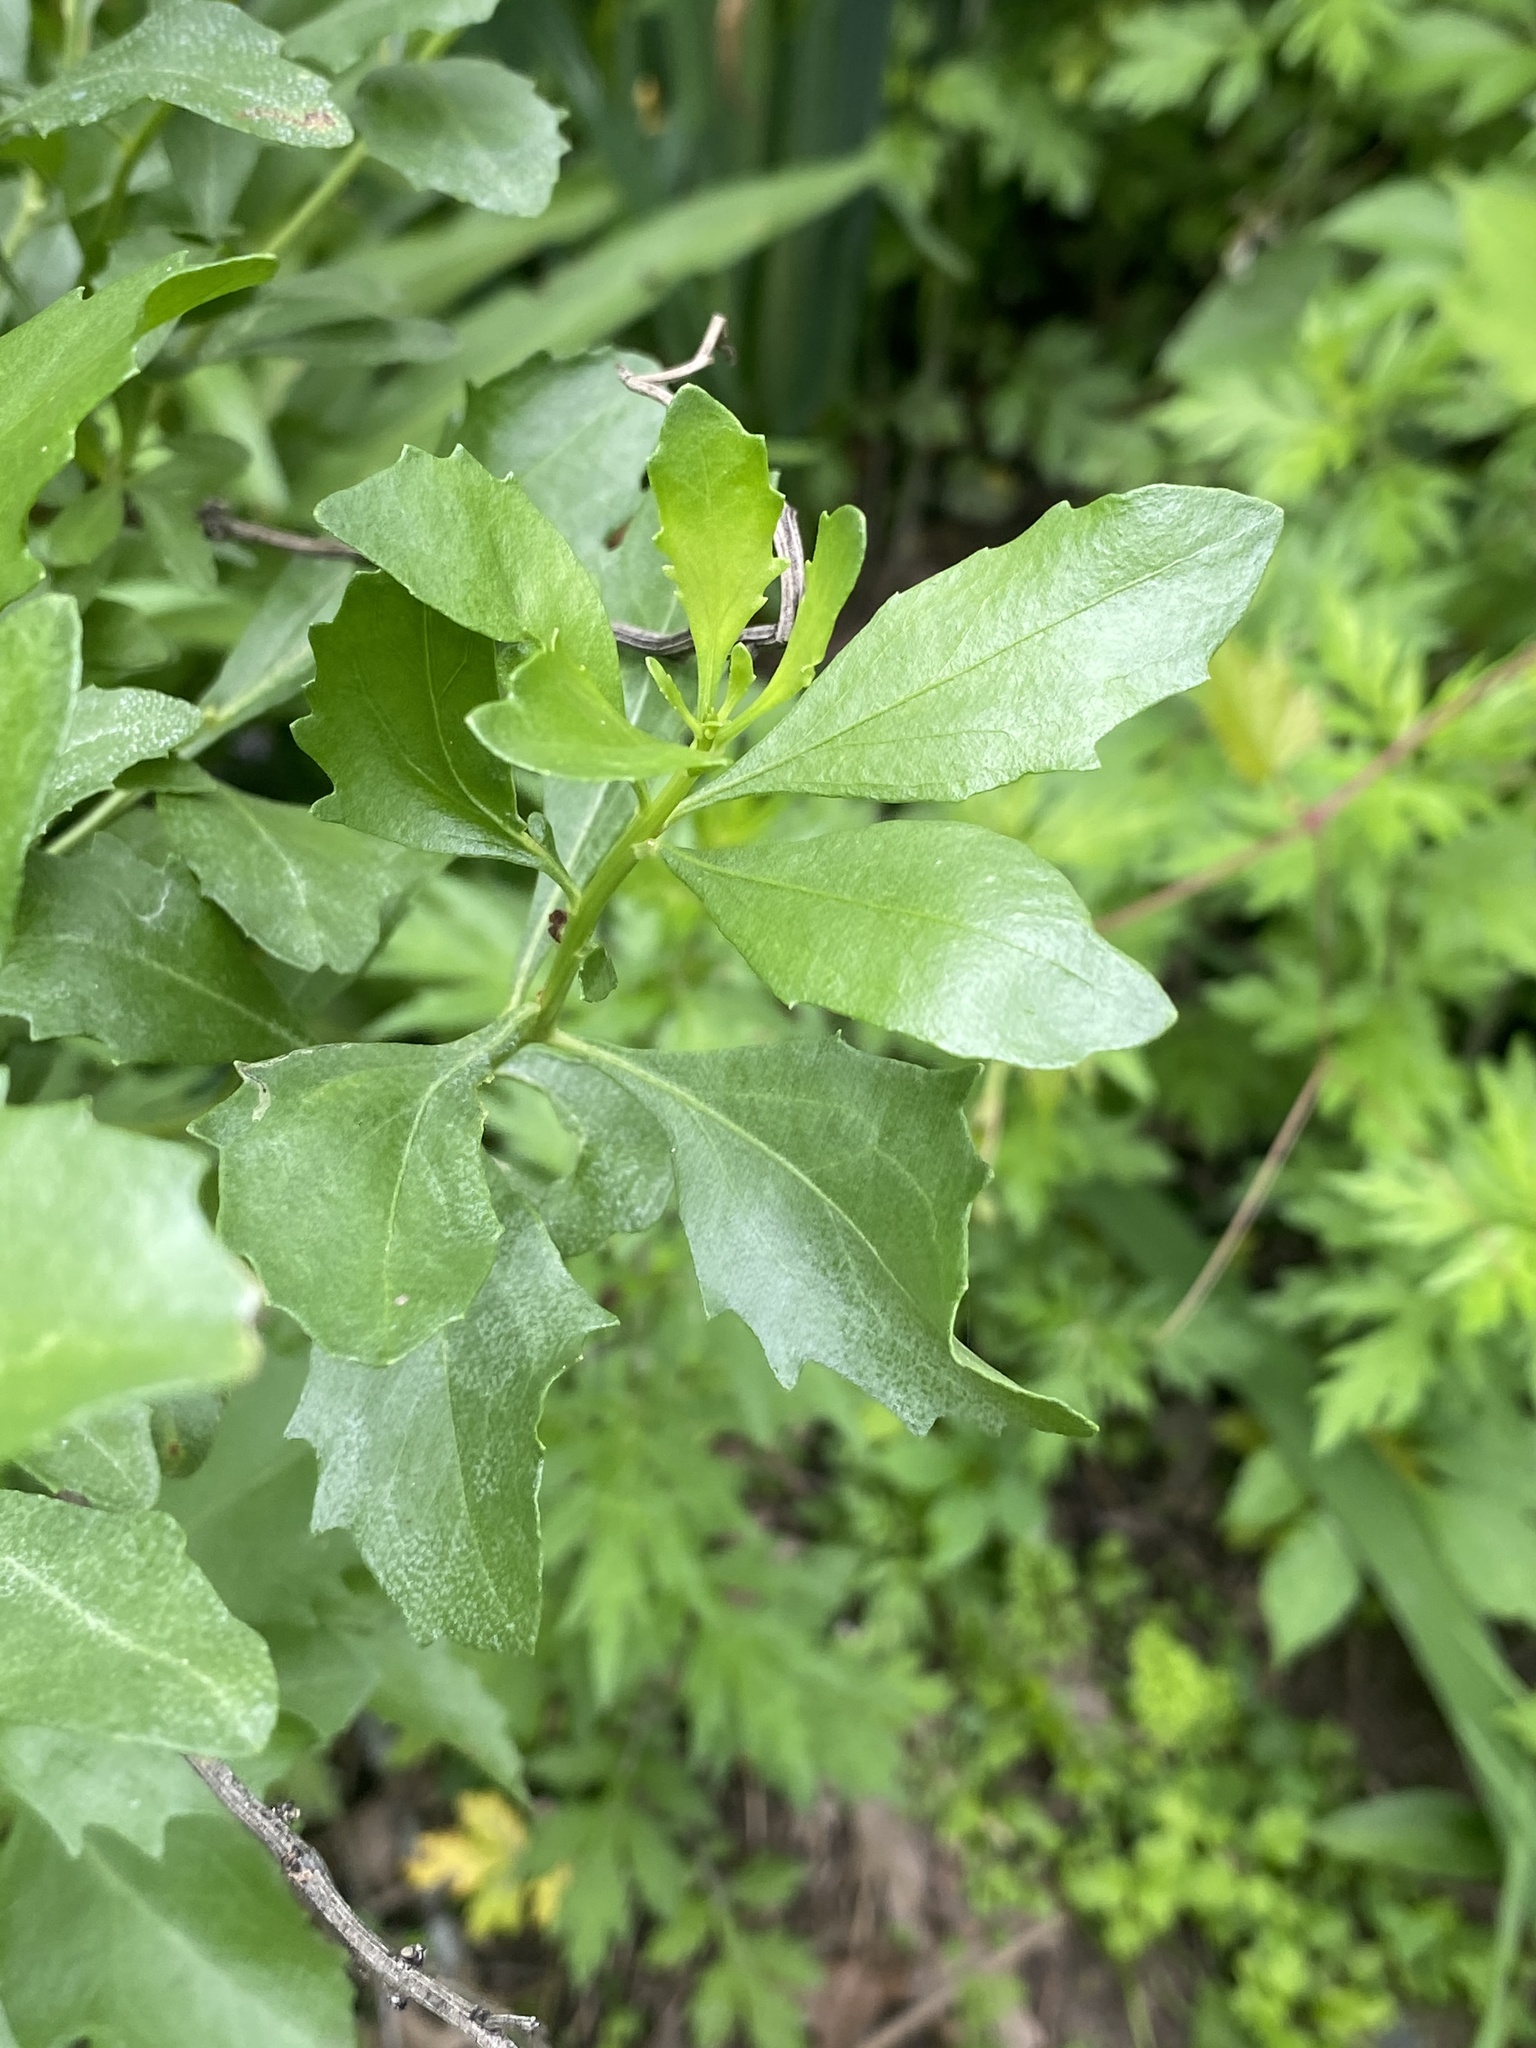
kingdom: Plantae
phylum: Tracheophyta
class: Magnoliopsida
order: Asterales
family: Asteraceae
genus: Baccharis
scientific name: Baccharis halimifolia
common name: Eastern baccharis
